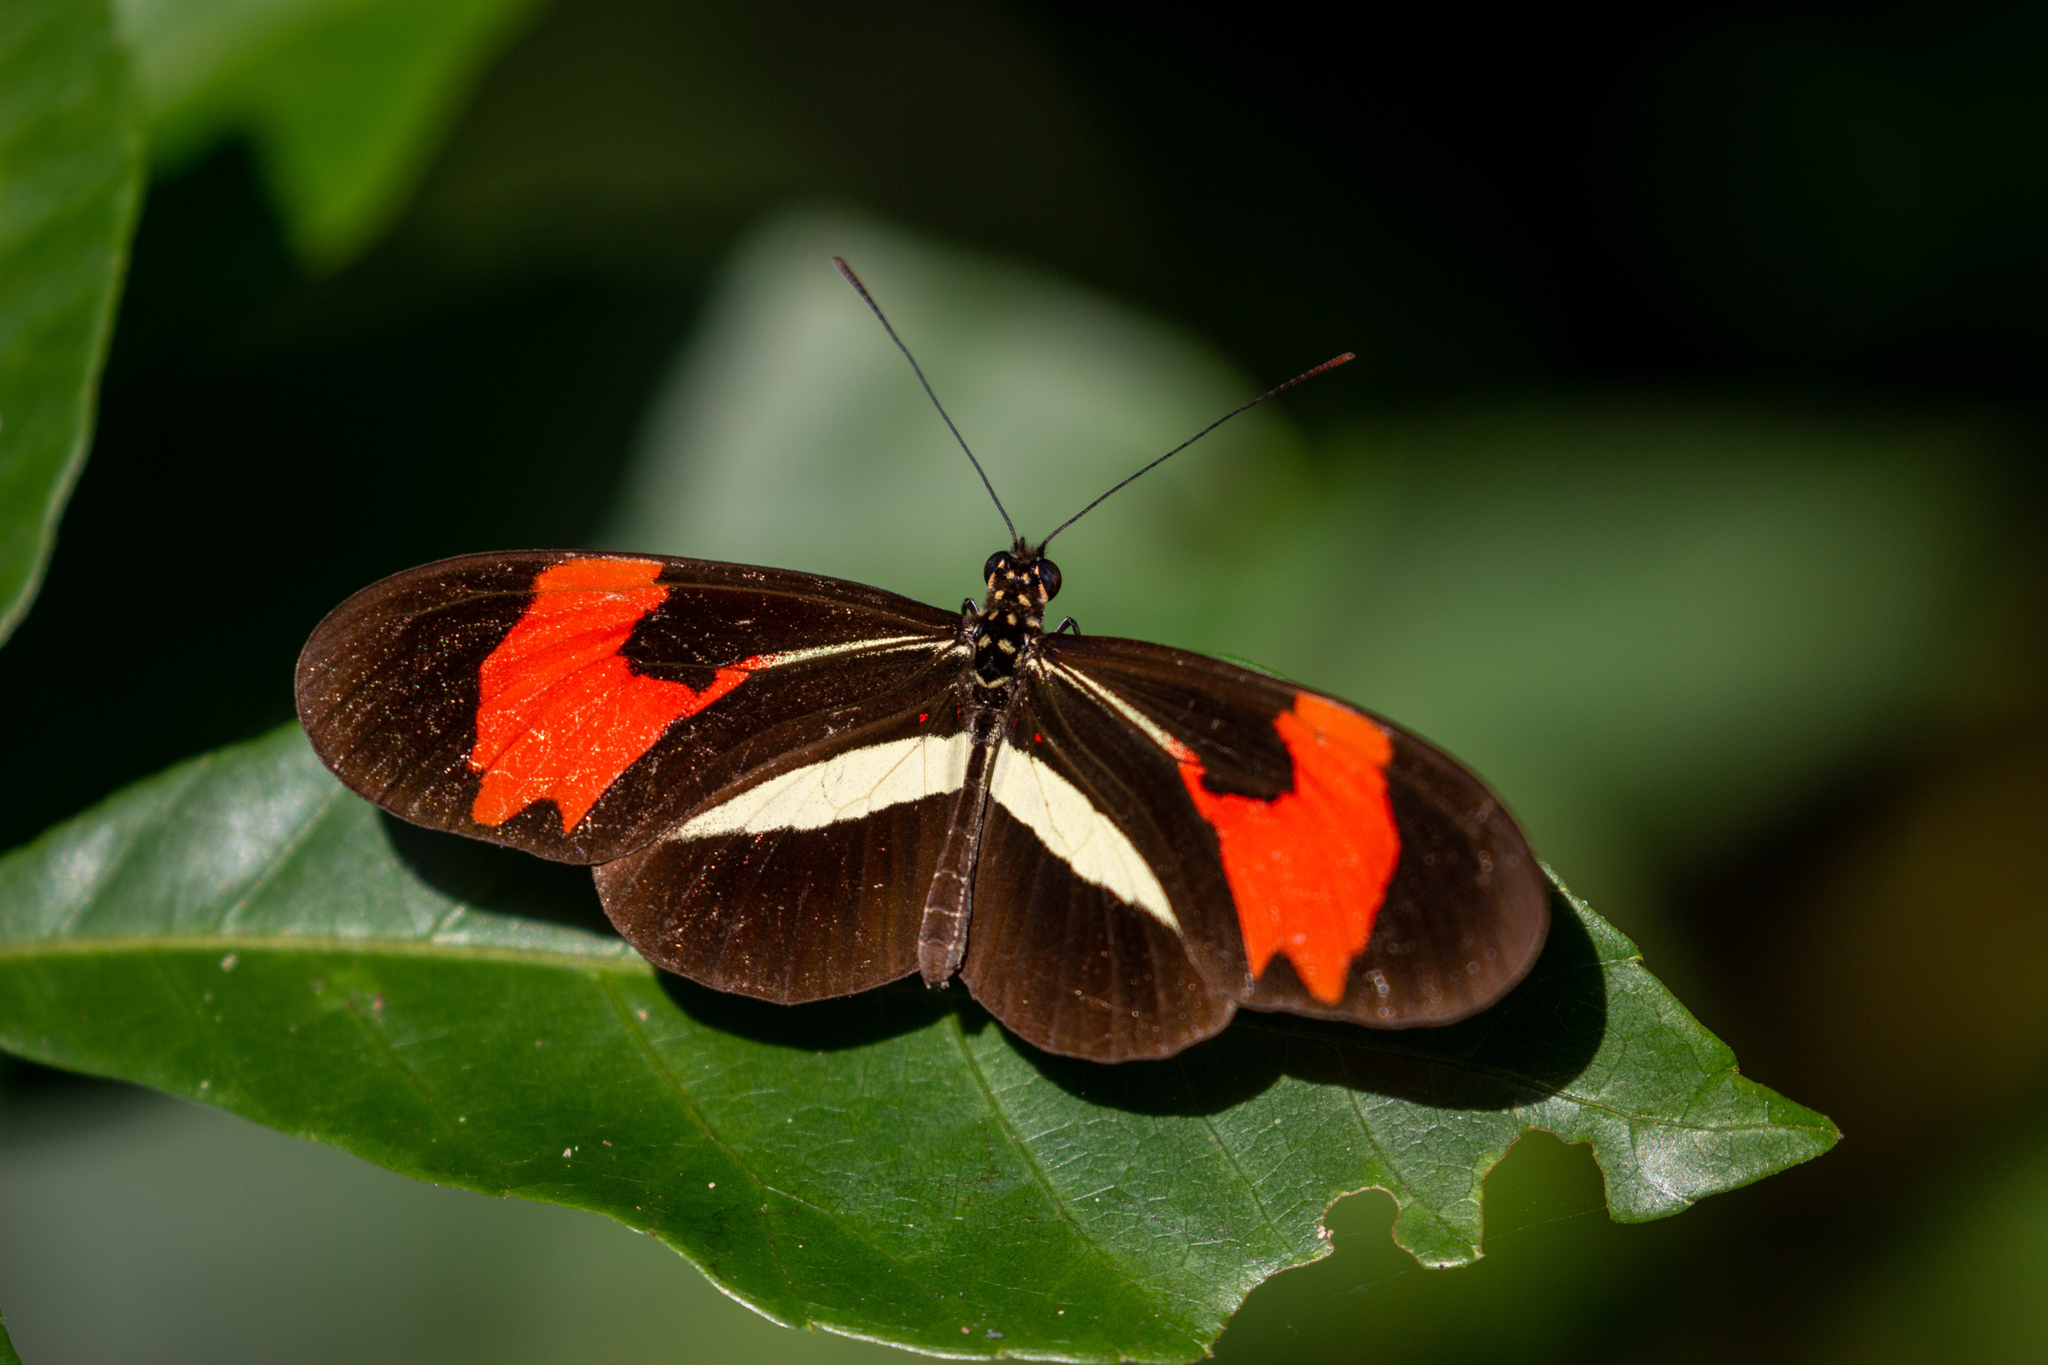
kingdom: Animalia
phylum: Arthropoda
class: Insecta
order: Lepidoptera
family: Nymphalidae
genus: Heliconius
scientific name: Heliconius erato
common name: Common patch longwing
